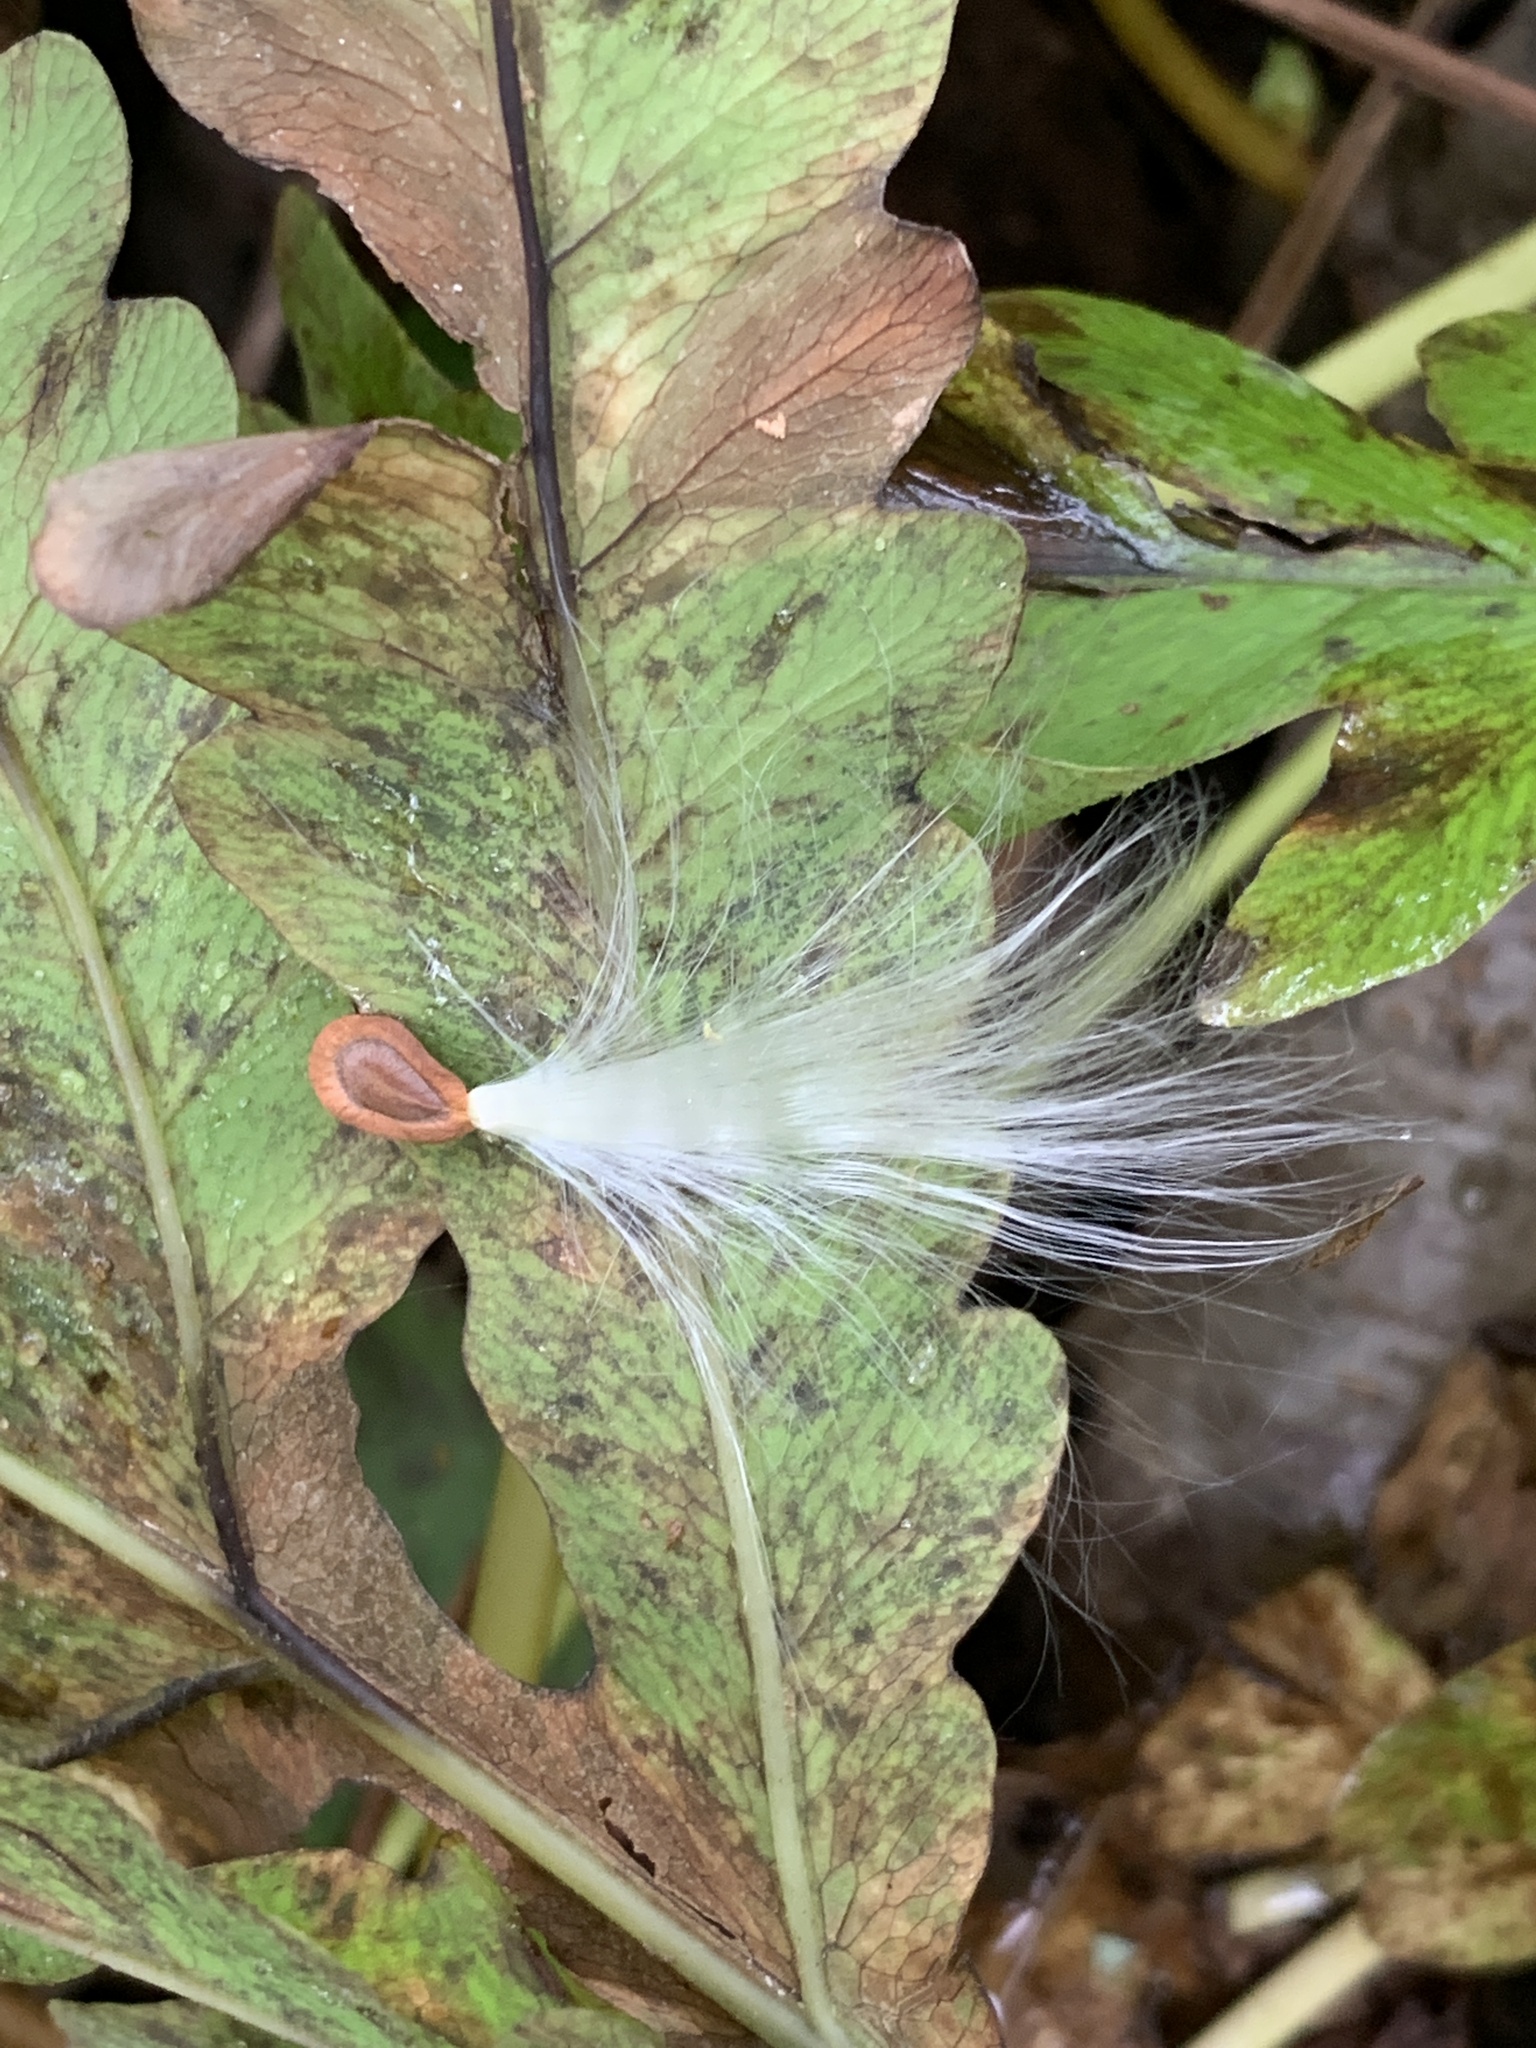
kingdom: Plantae
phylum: Tracheophyta
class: Magnoliopsida
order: Gentianales
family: Apocynaceae
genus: Asclepias
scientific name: Asclepias syriaca
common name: Common milkweed
